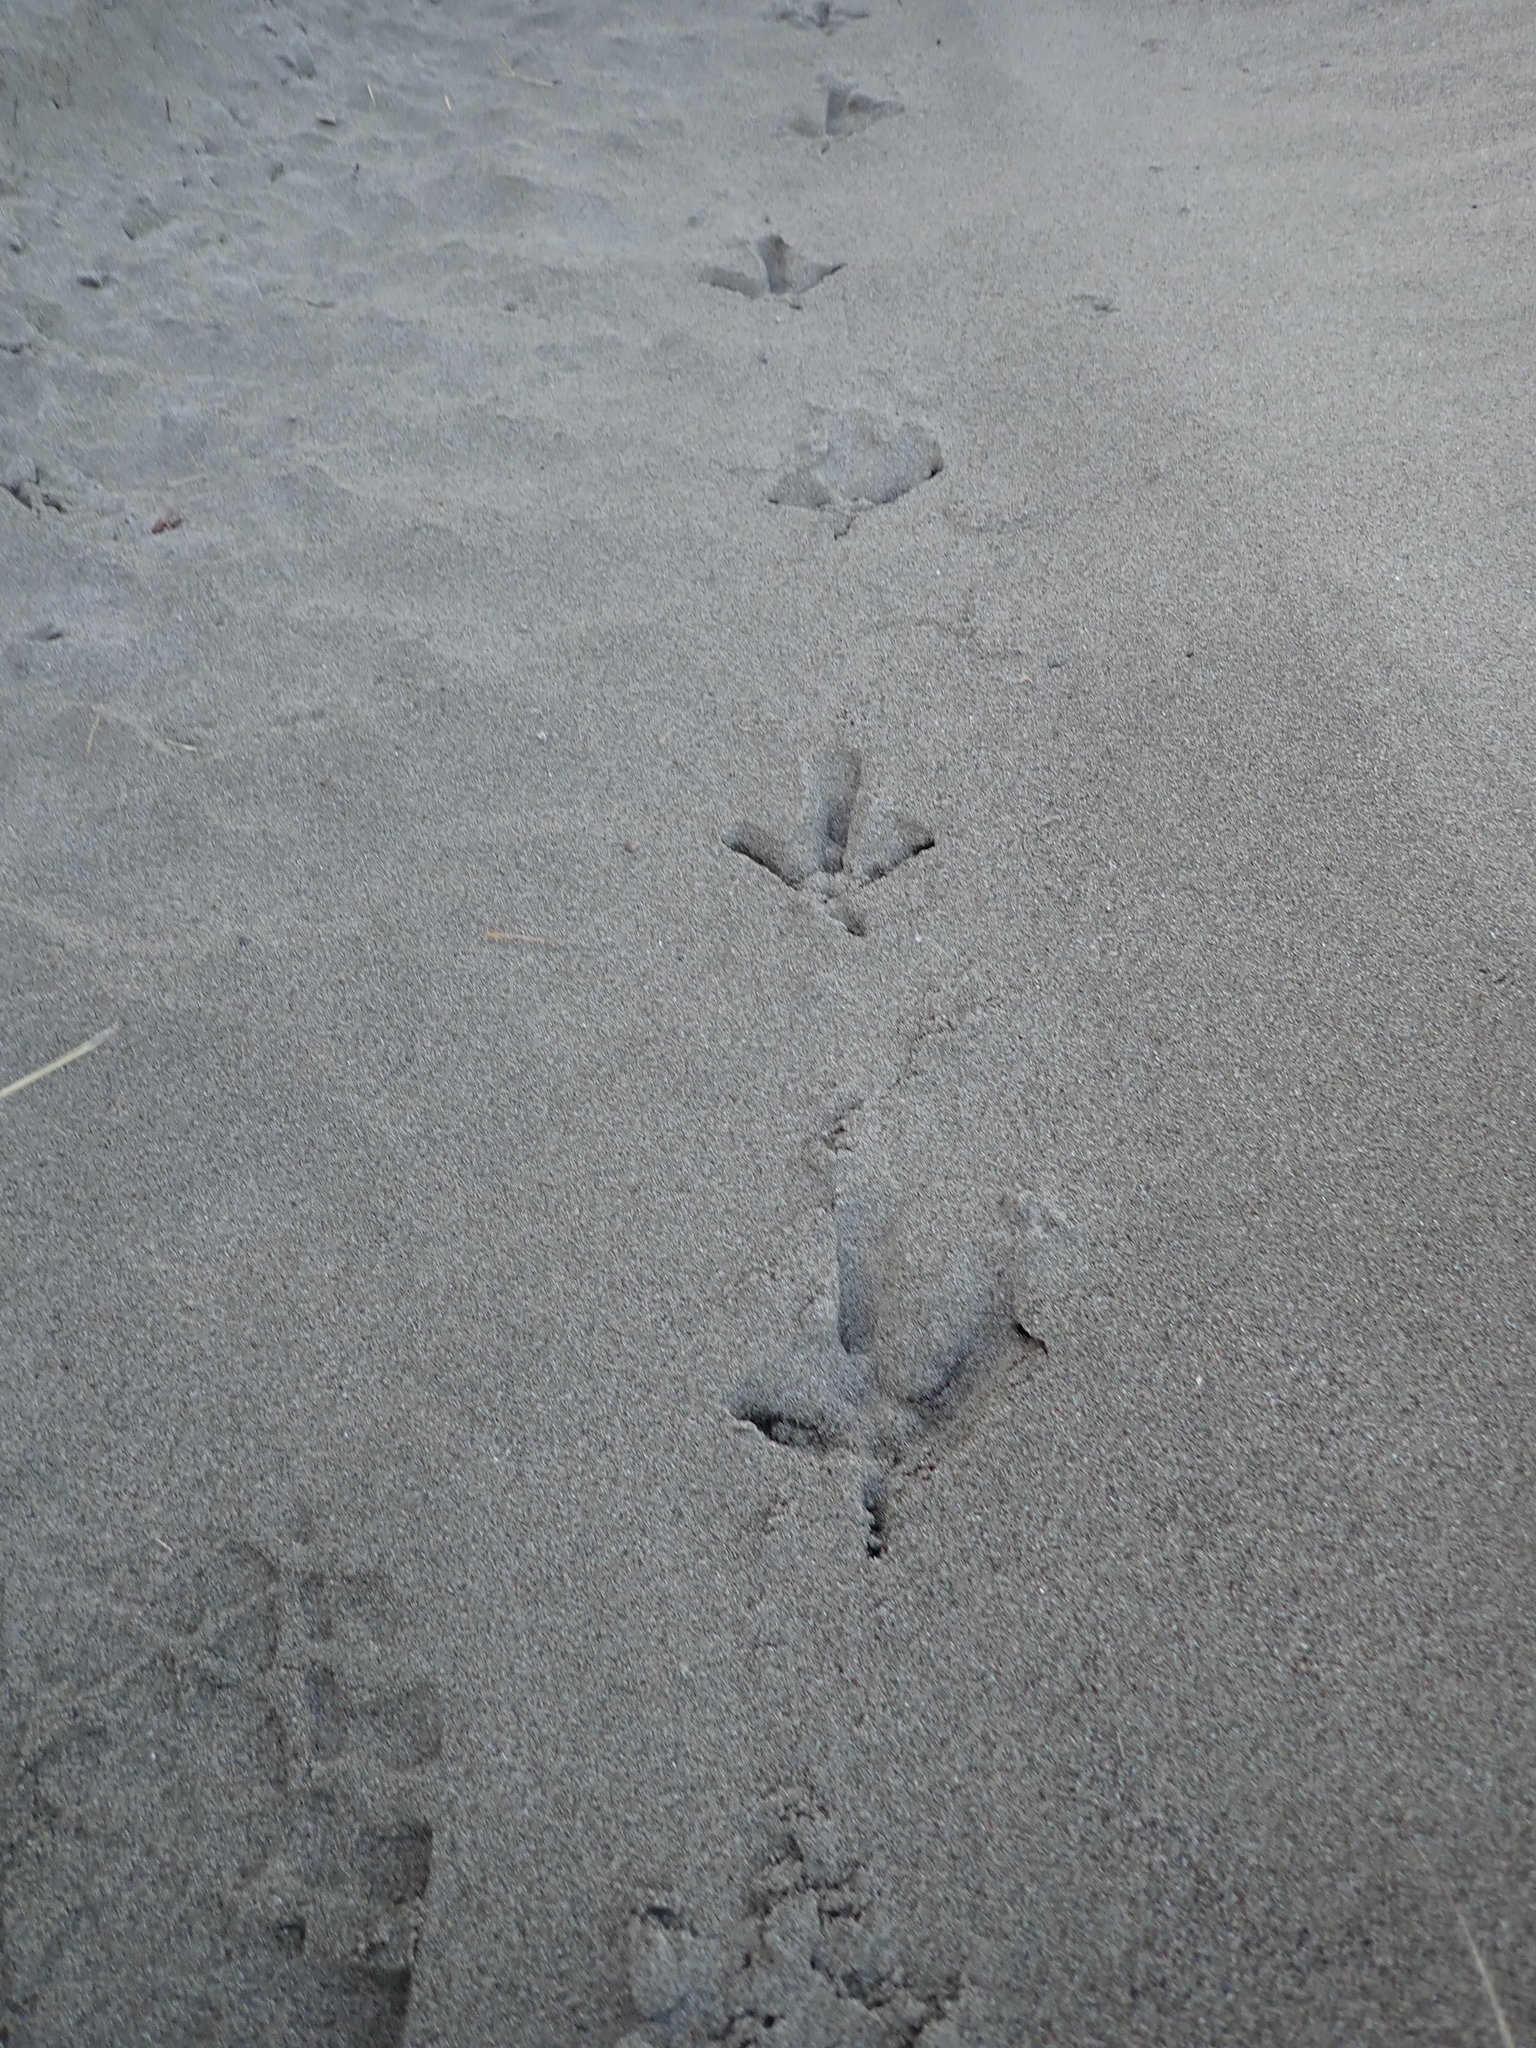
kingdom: Animalia
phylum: Chordata
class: Aves
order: Galliformes
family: Phasianidae
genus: Phasianus
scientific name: Phasianus colchicus
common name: Common pheasant
